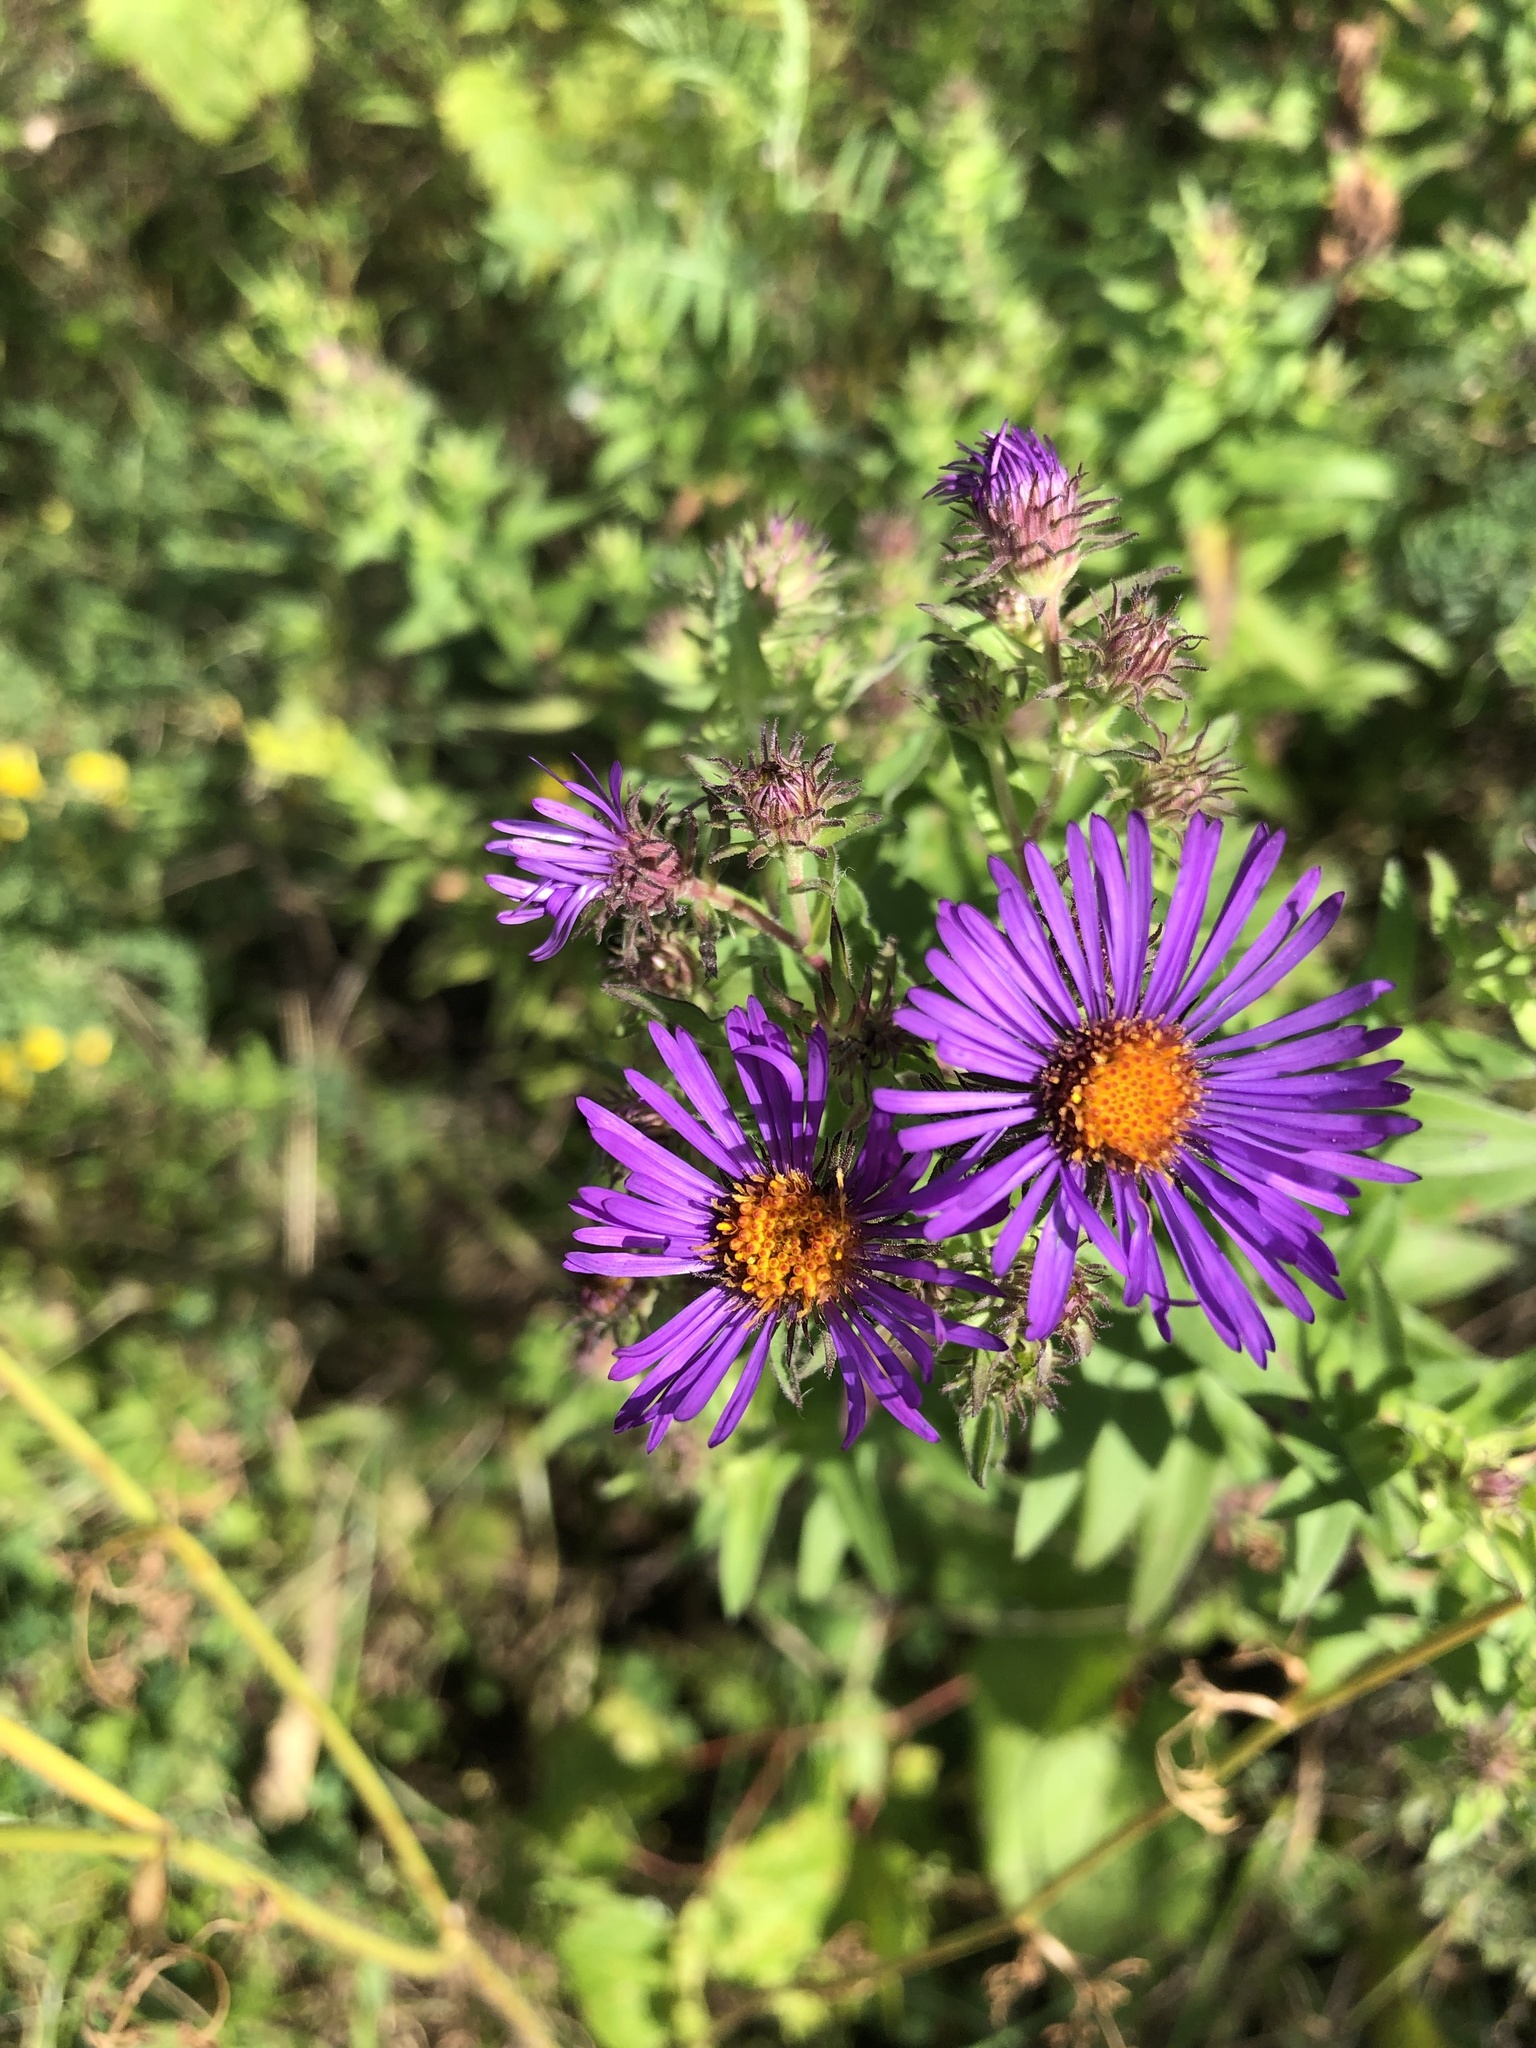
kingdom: Plantae
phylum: Tracheophyta
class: Magnoliopsida
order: Asterales
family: Asteraceae
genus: Symphyotrichum
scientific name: Symphyotrichum novae-angliae
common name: Michaelmas daisy
